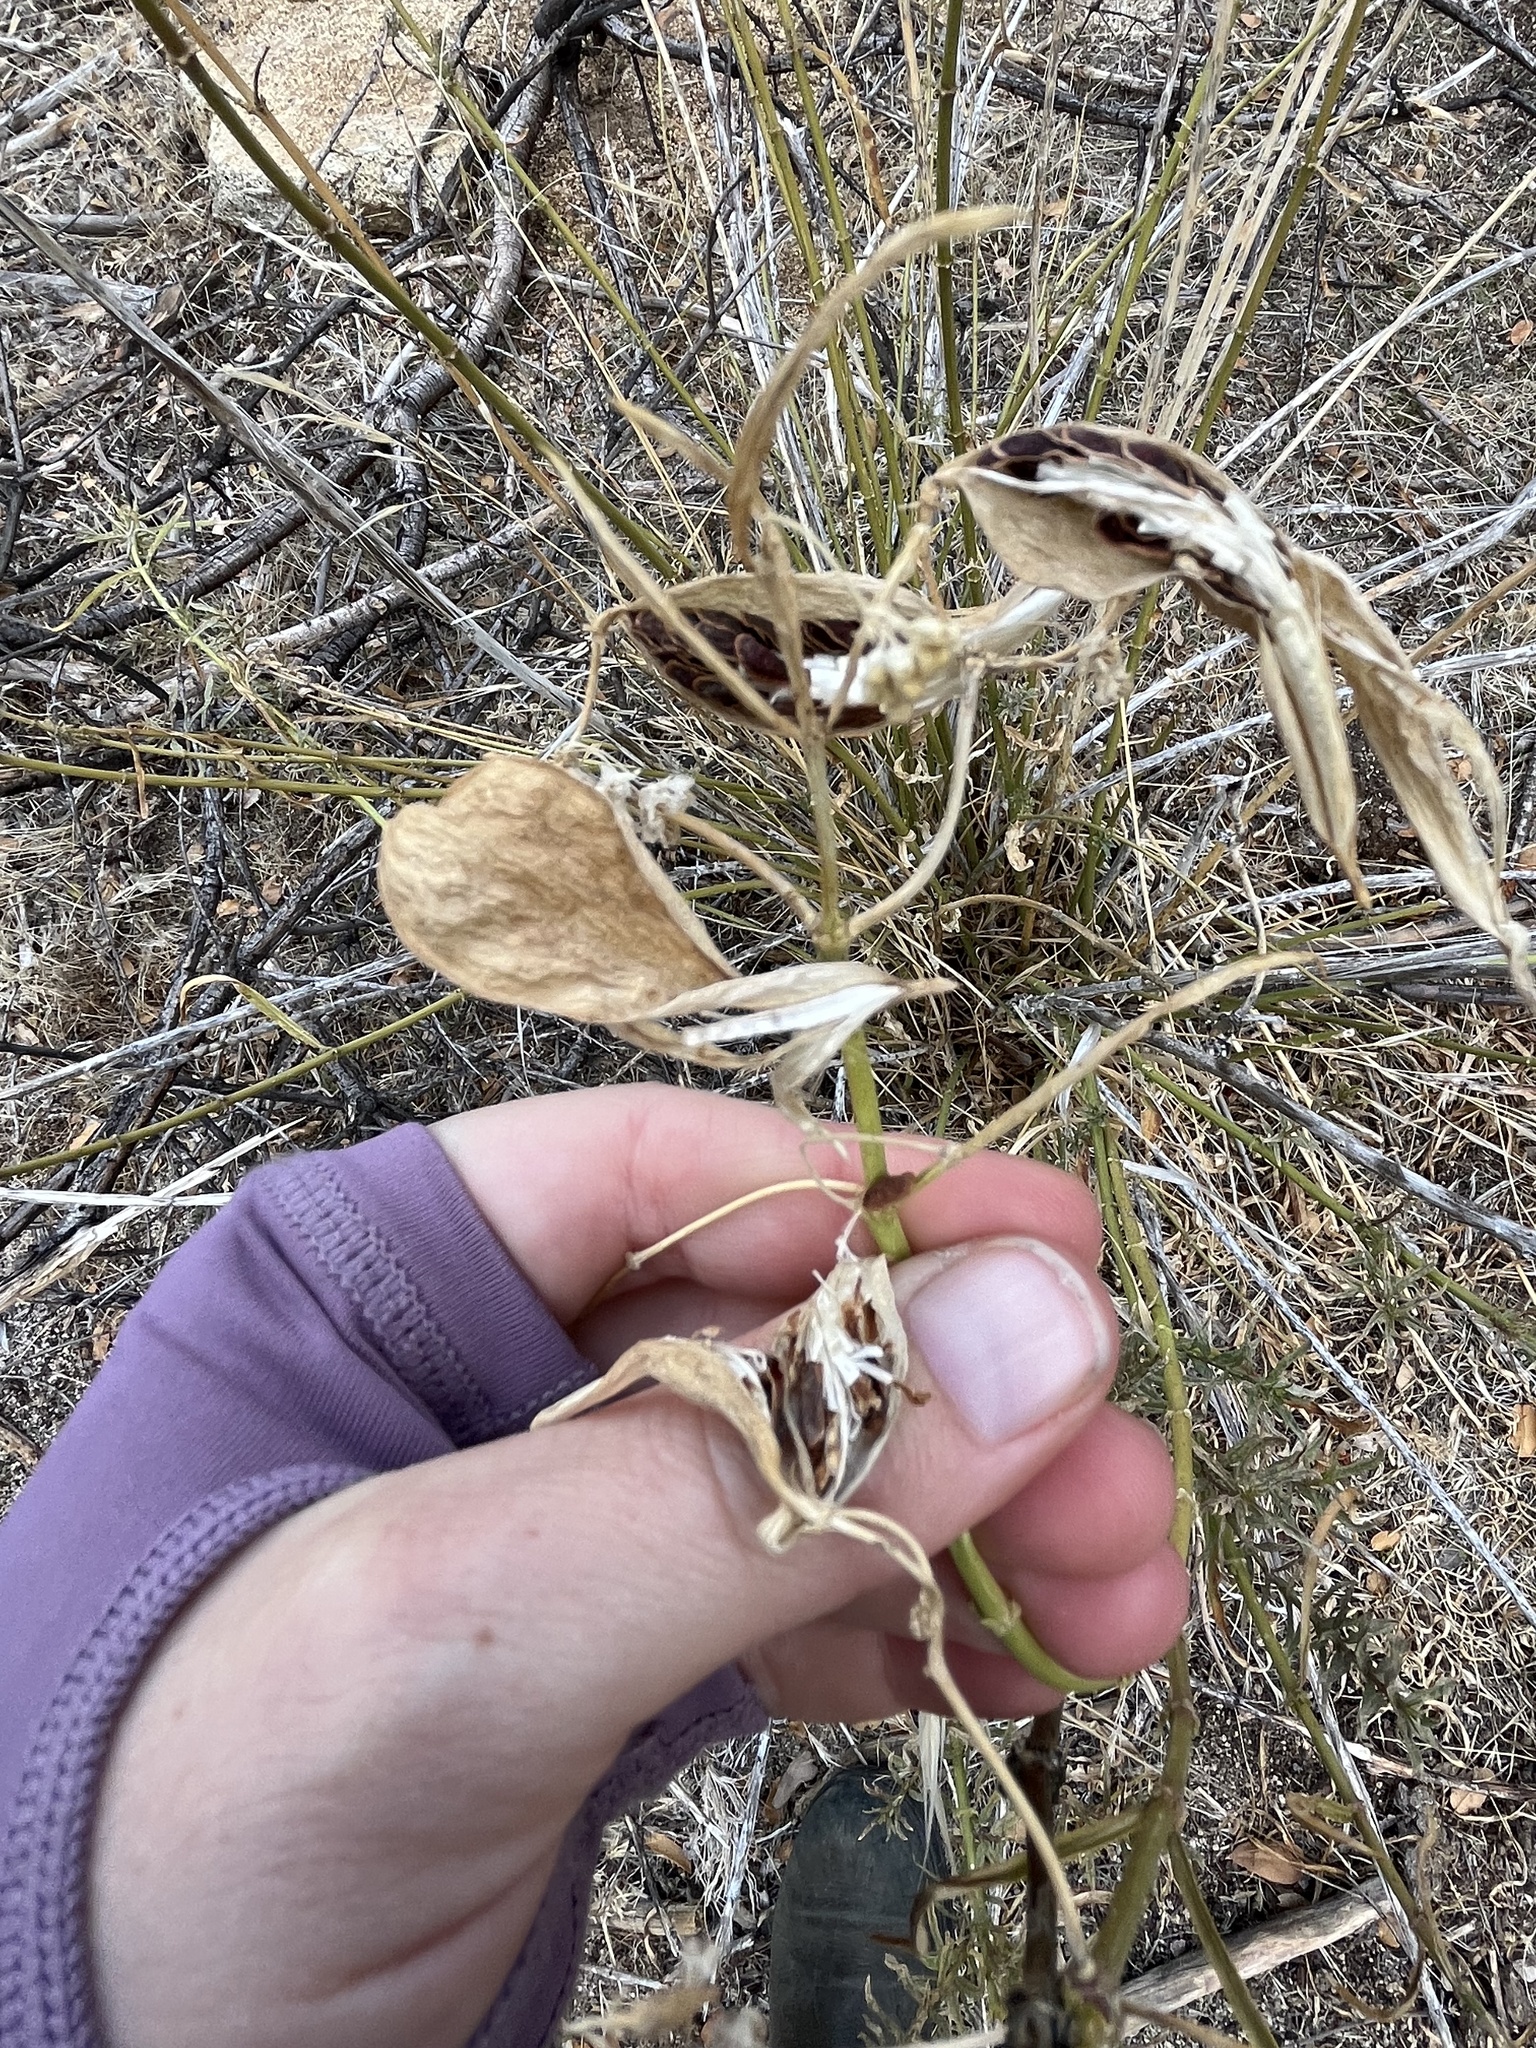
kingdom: Plantae
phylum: Tracheophyta
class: Magnoliopsida
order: Gentianales
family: Apocynaceae
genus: Asclepias
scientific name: Asclepias fascicularis
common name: Mexican milkweed
